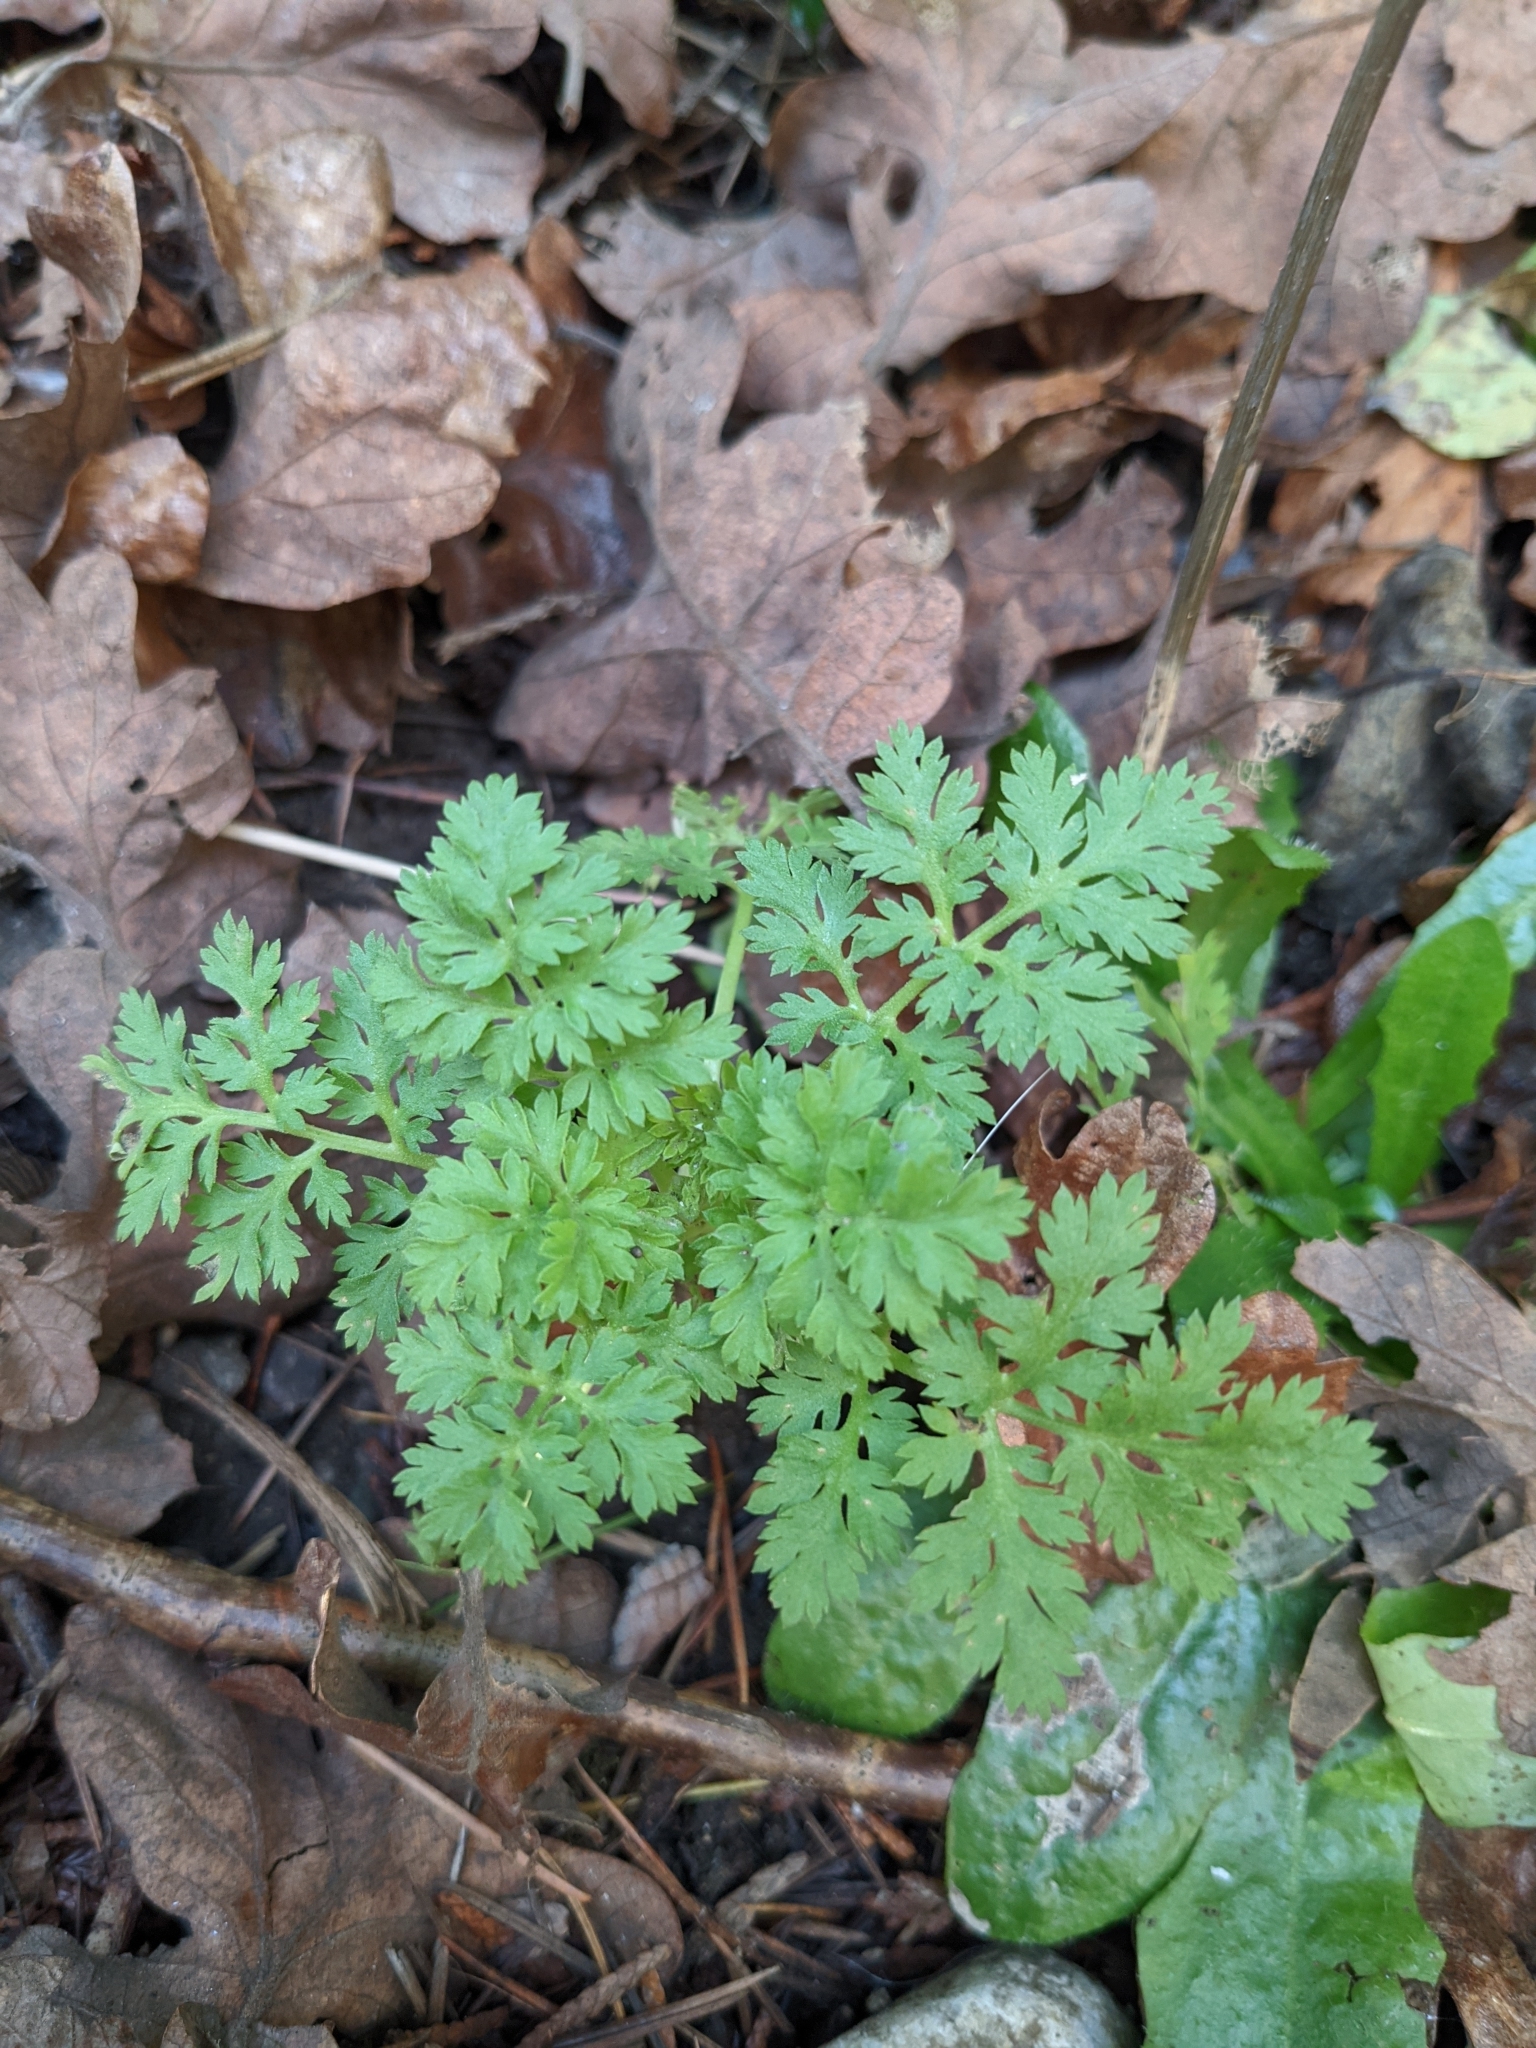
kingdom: Plantae
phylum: Tracheophyta
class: Magnoliopsida
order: Asterales
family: Asteraceae
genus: Tanacetum
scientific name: Tanacetum parthenium
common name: Feverfew
